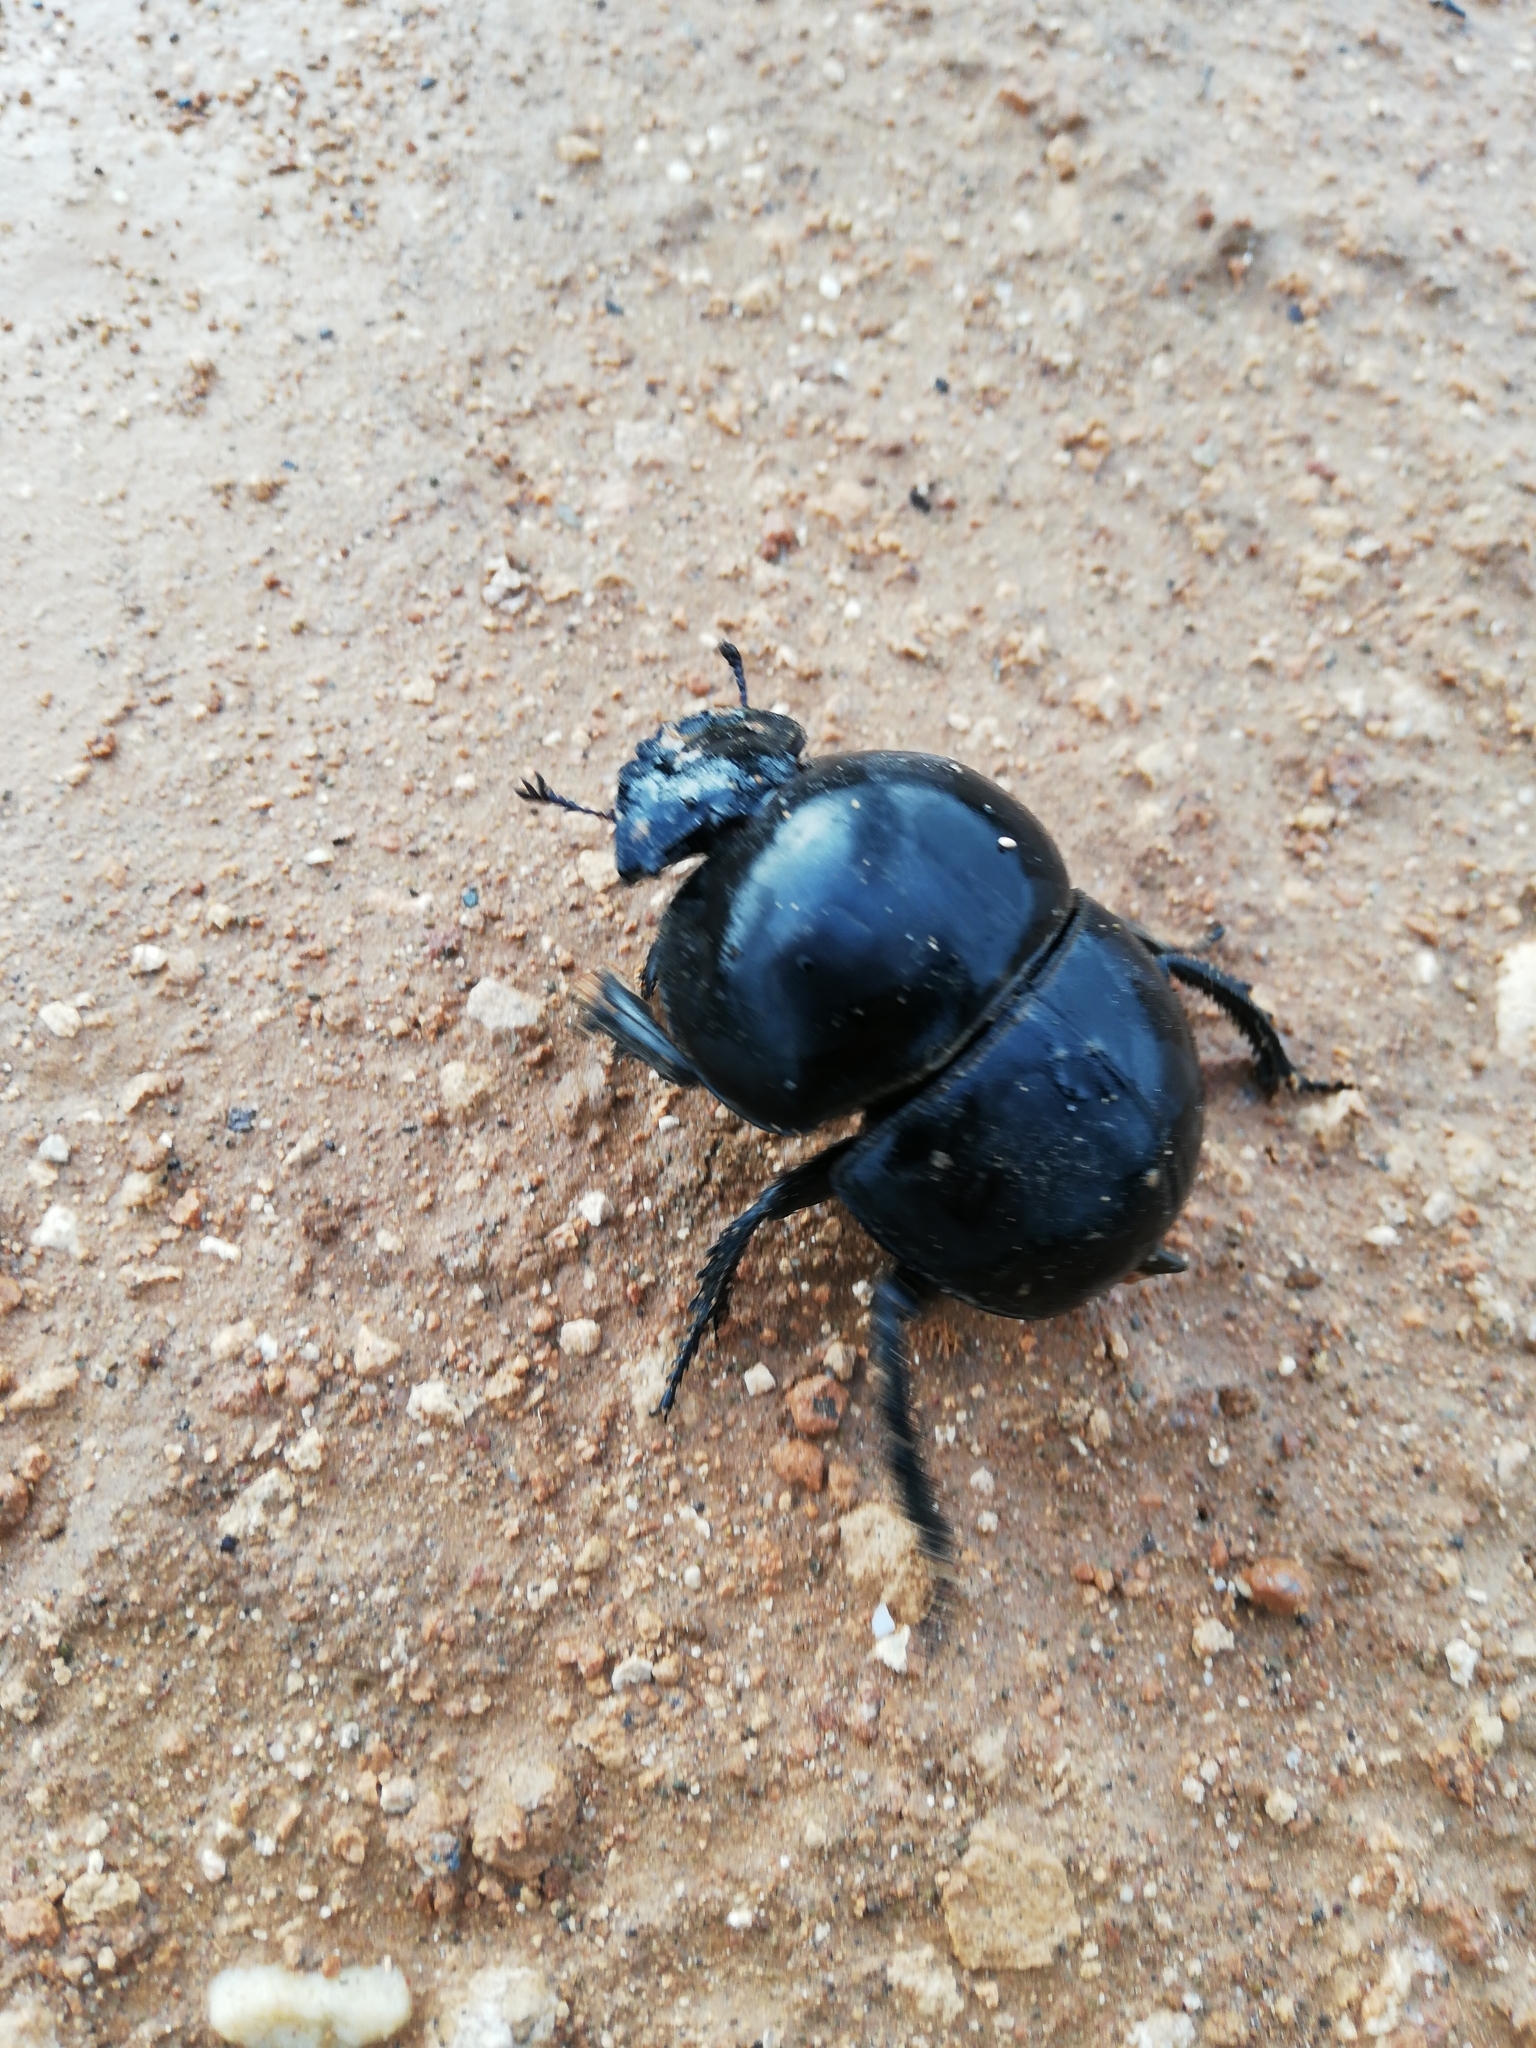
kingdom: Animalia
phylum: Arthropoda
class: Insecta
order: Coleoptera
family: Scarabaeidae
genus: Circellium
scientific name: Circellium bacchus
